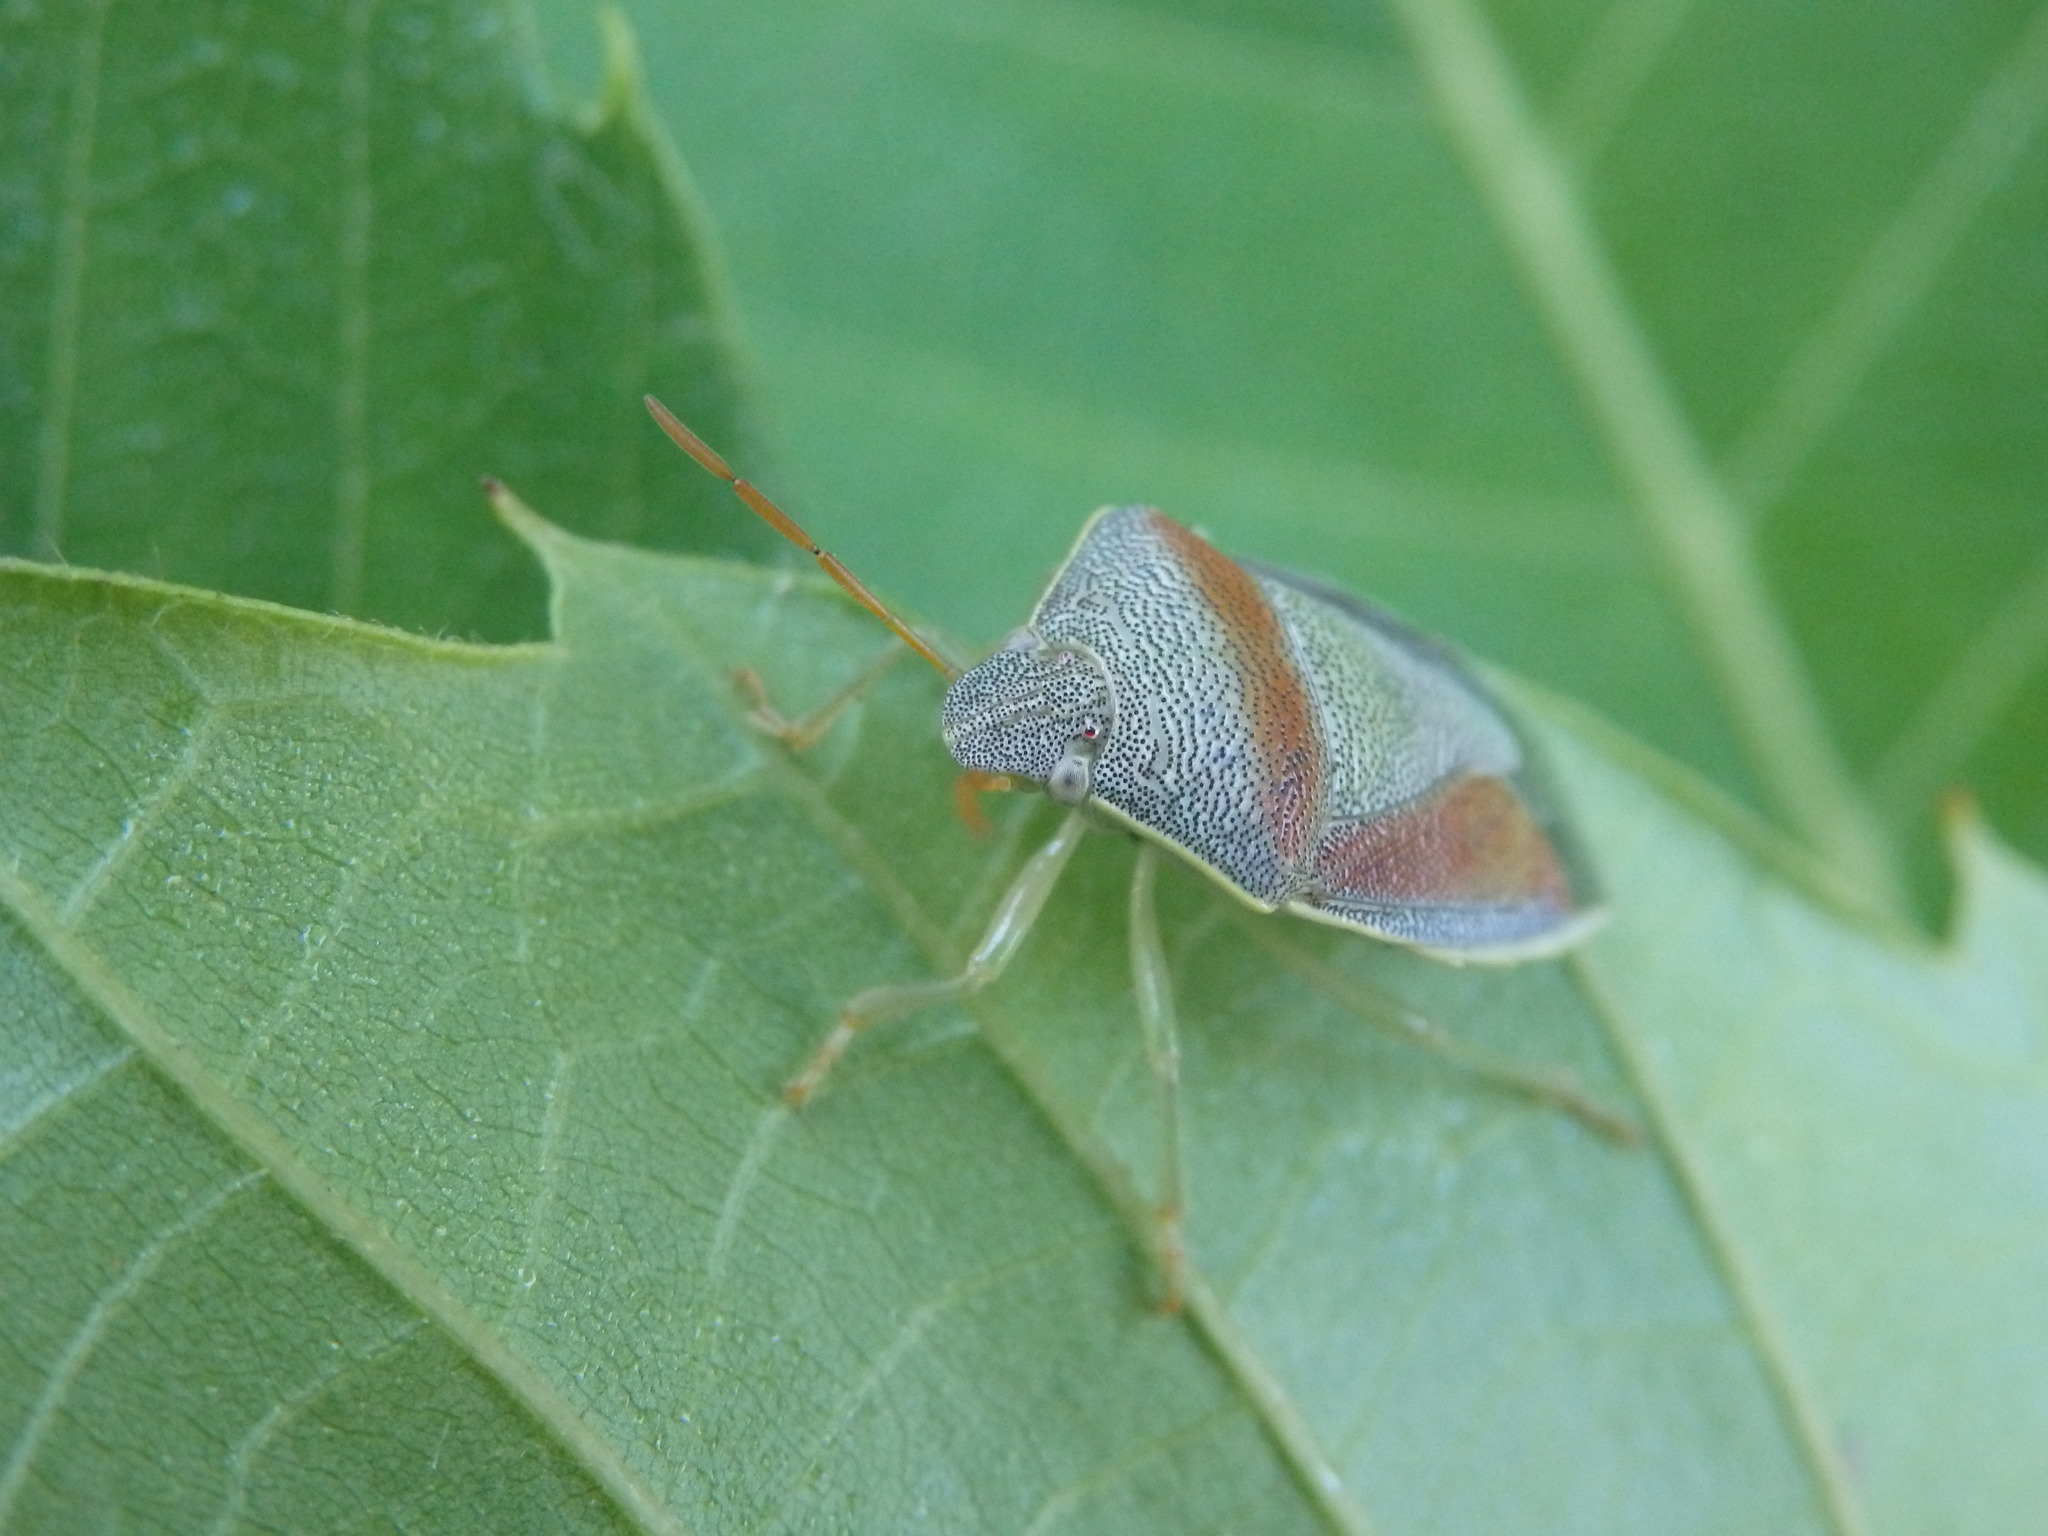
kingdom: Animalia
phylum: Arthropoda
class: Insecta
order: Hemiptera
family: Pentatomidae
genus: Piezodorus
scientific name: Piezodorus lituratus
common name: Stink bug
